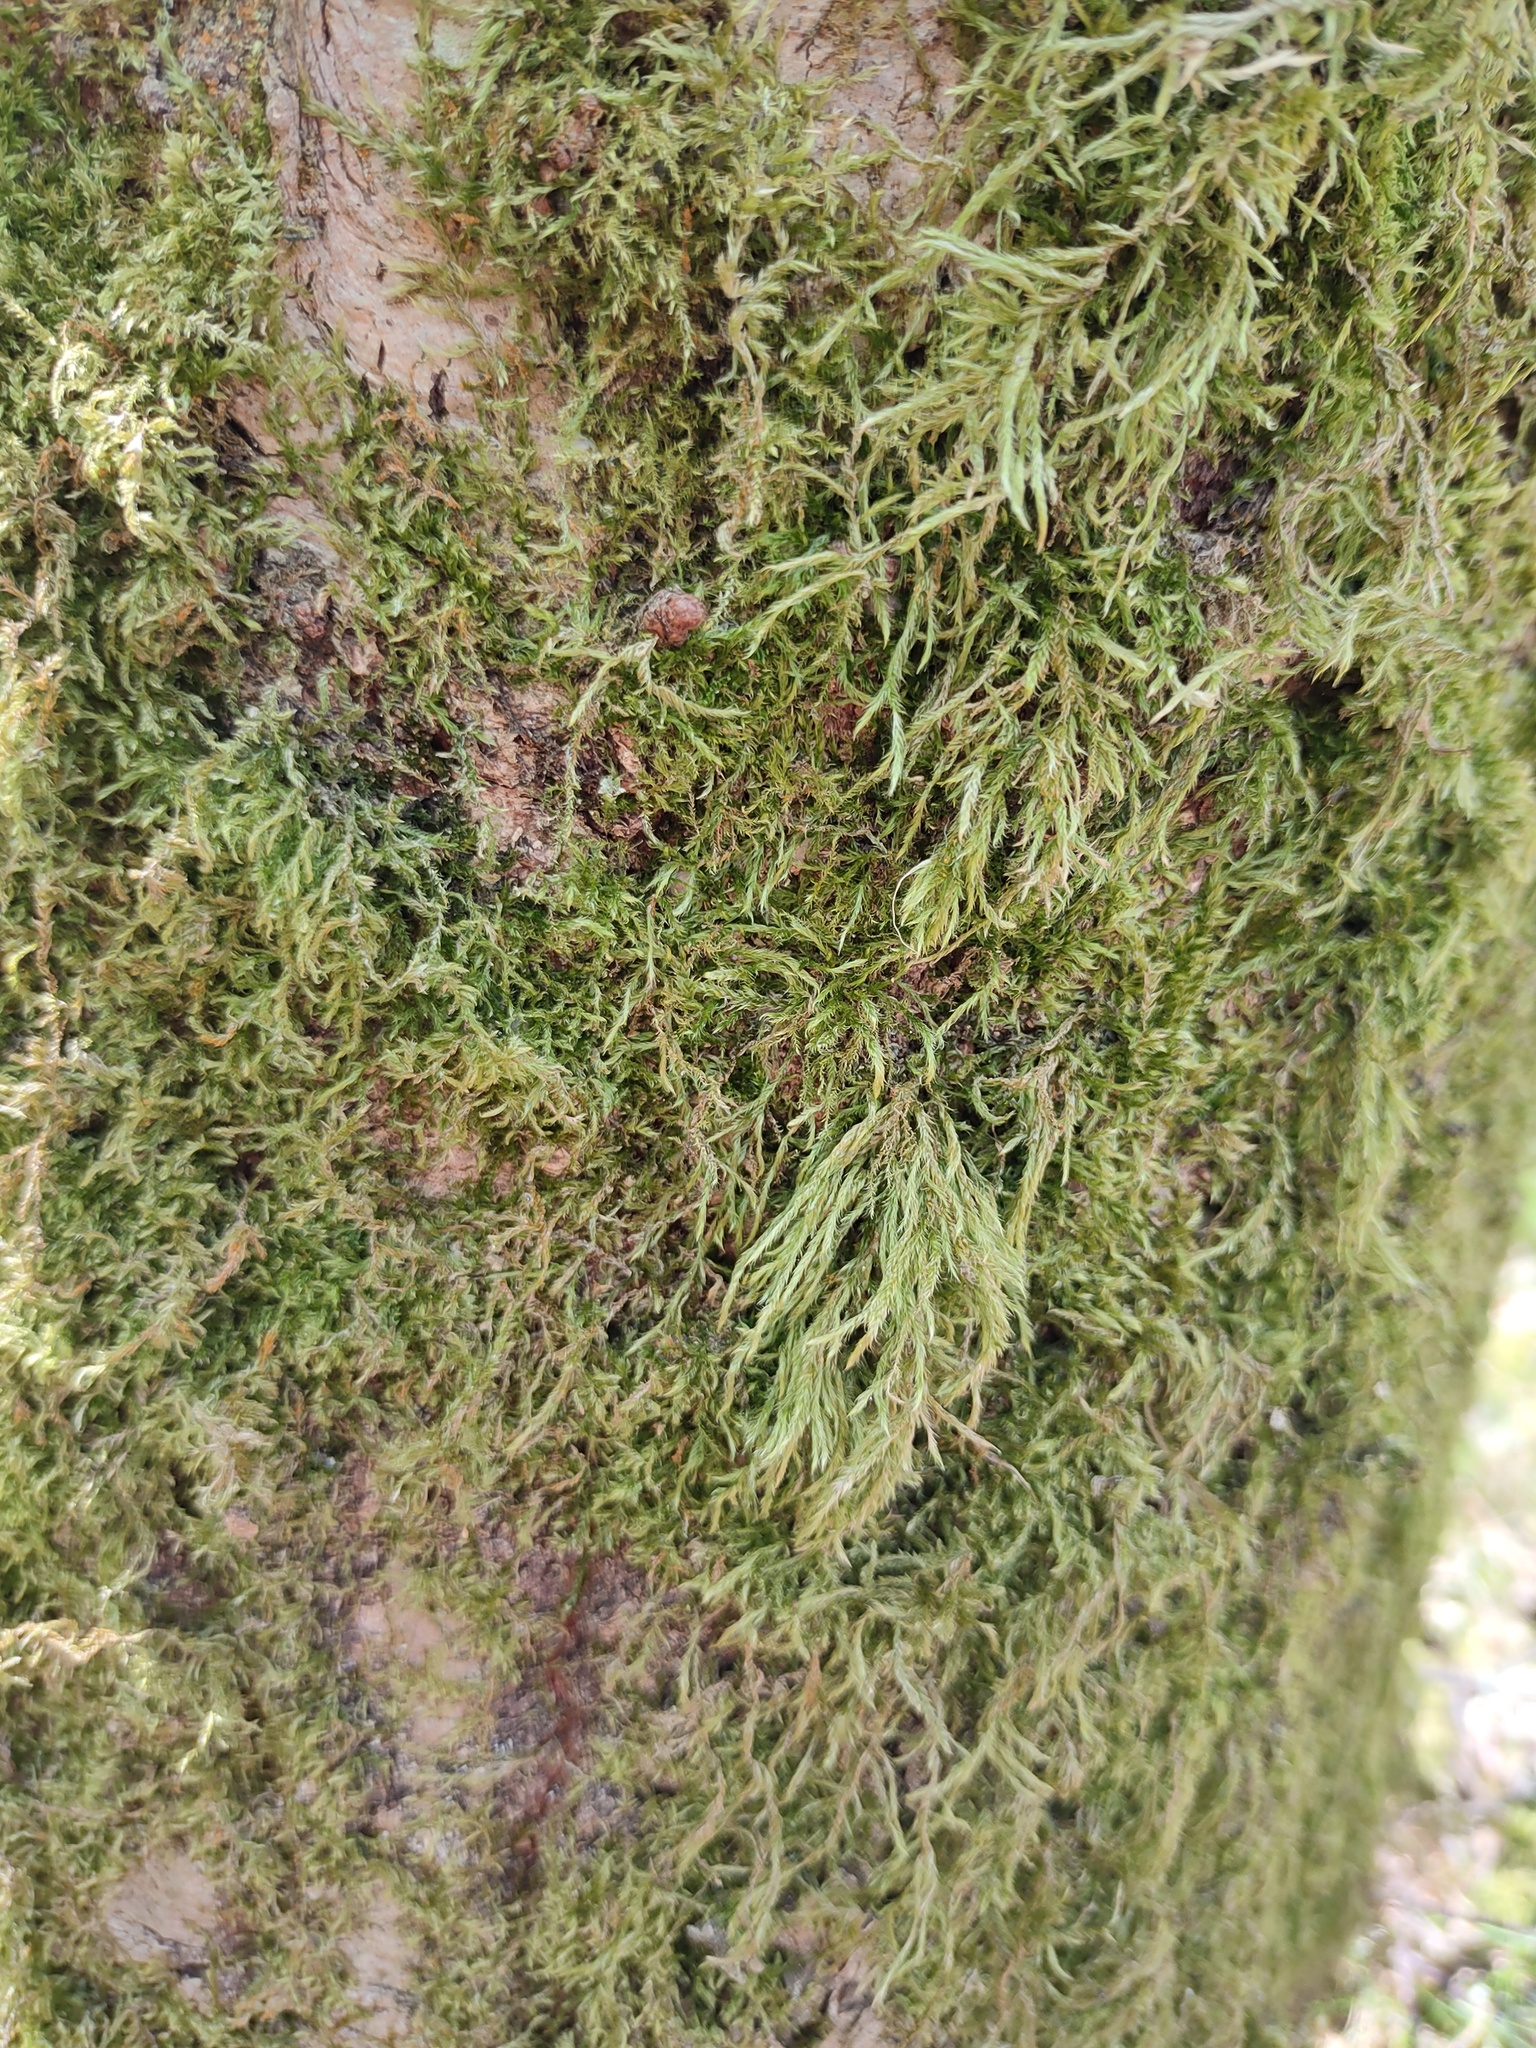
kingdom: Plantae
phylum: Bryophyta
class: Bryopsida
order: Hypnales
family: Hypnaceae
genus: Hypnum
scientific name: Hypnum cupressiforme
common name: Cypress-leaved plait-moss
